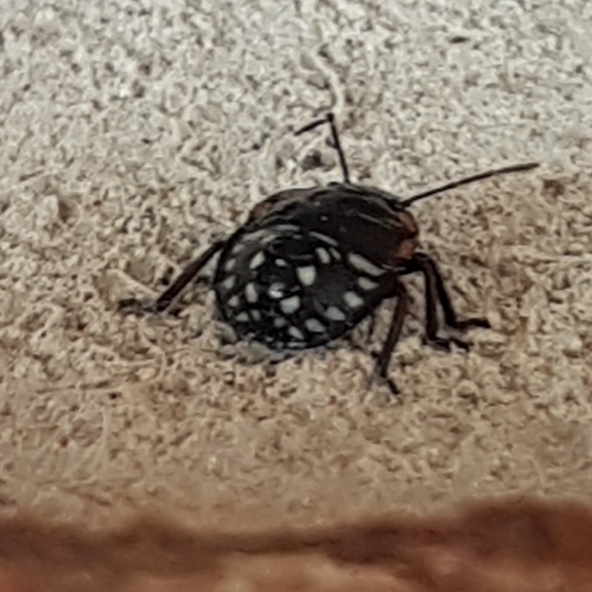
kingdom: Animalia
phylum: Arthropoda
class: Insecta
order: Hemiptera
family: Pentatomidae
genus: Nezara
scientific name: Nezara viridula
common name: Southern green stink bug
